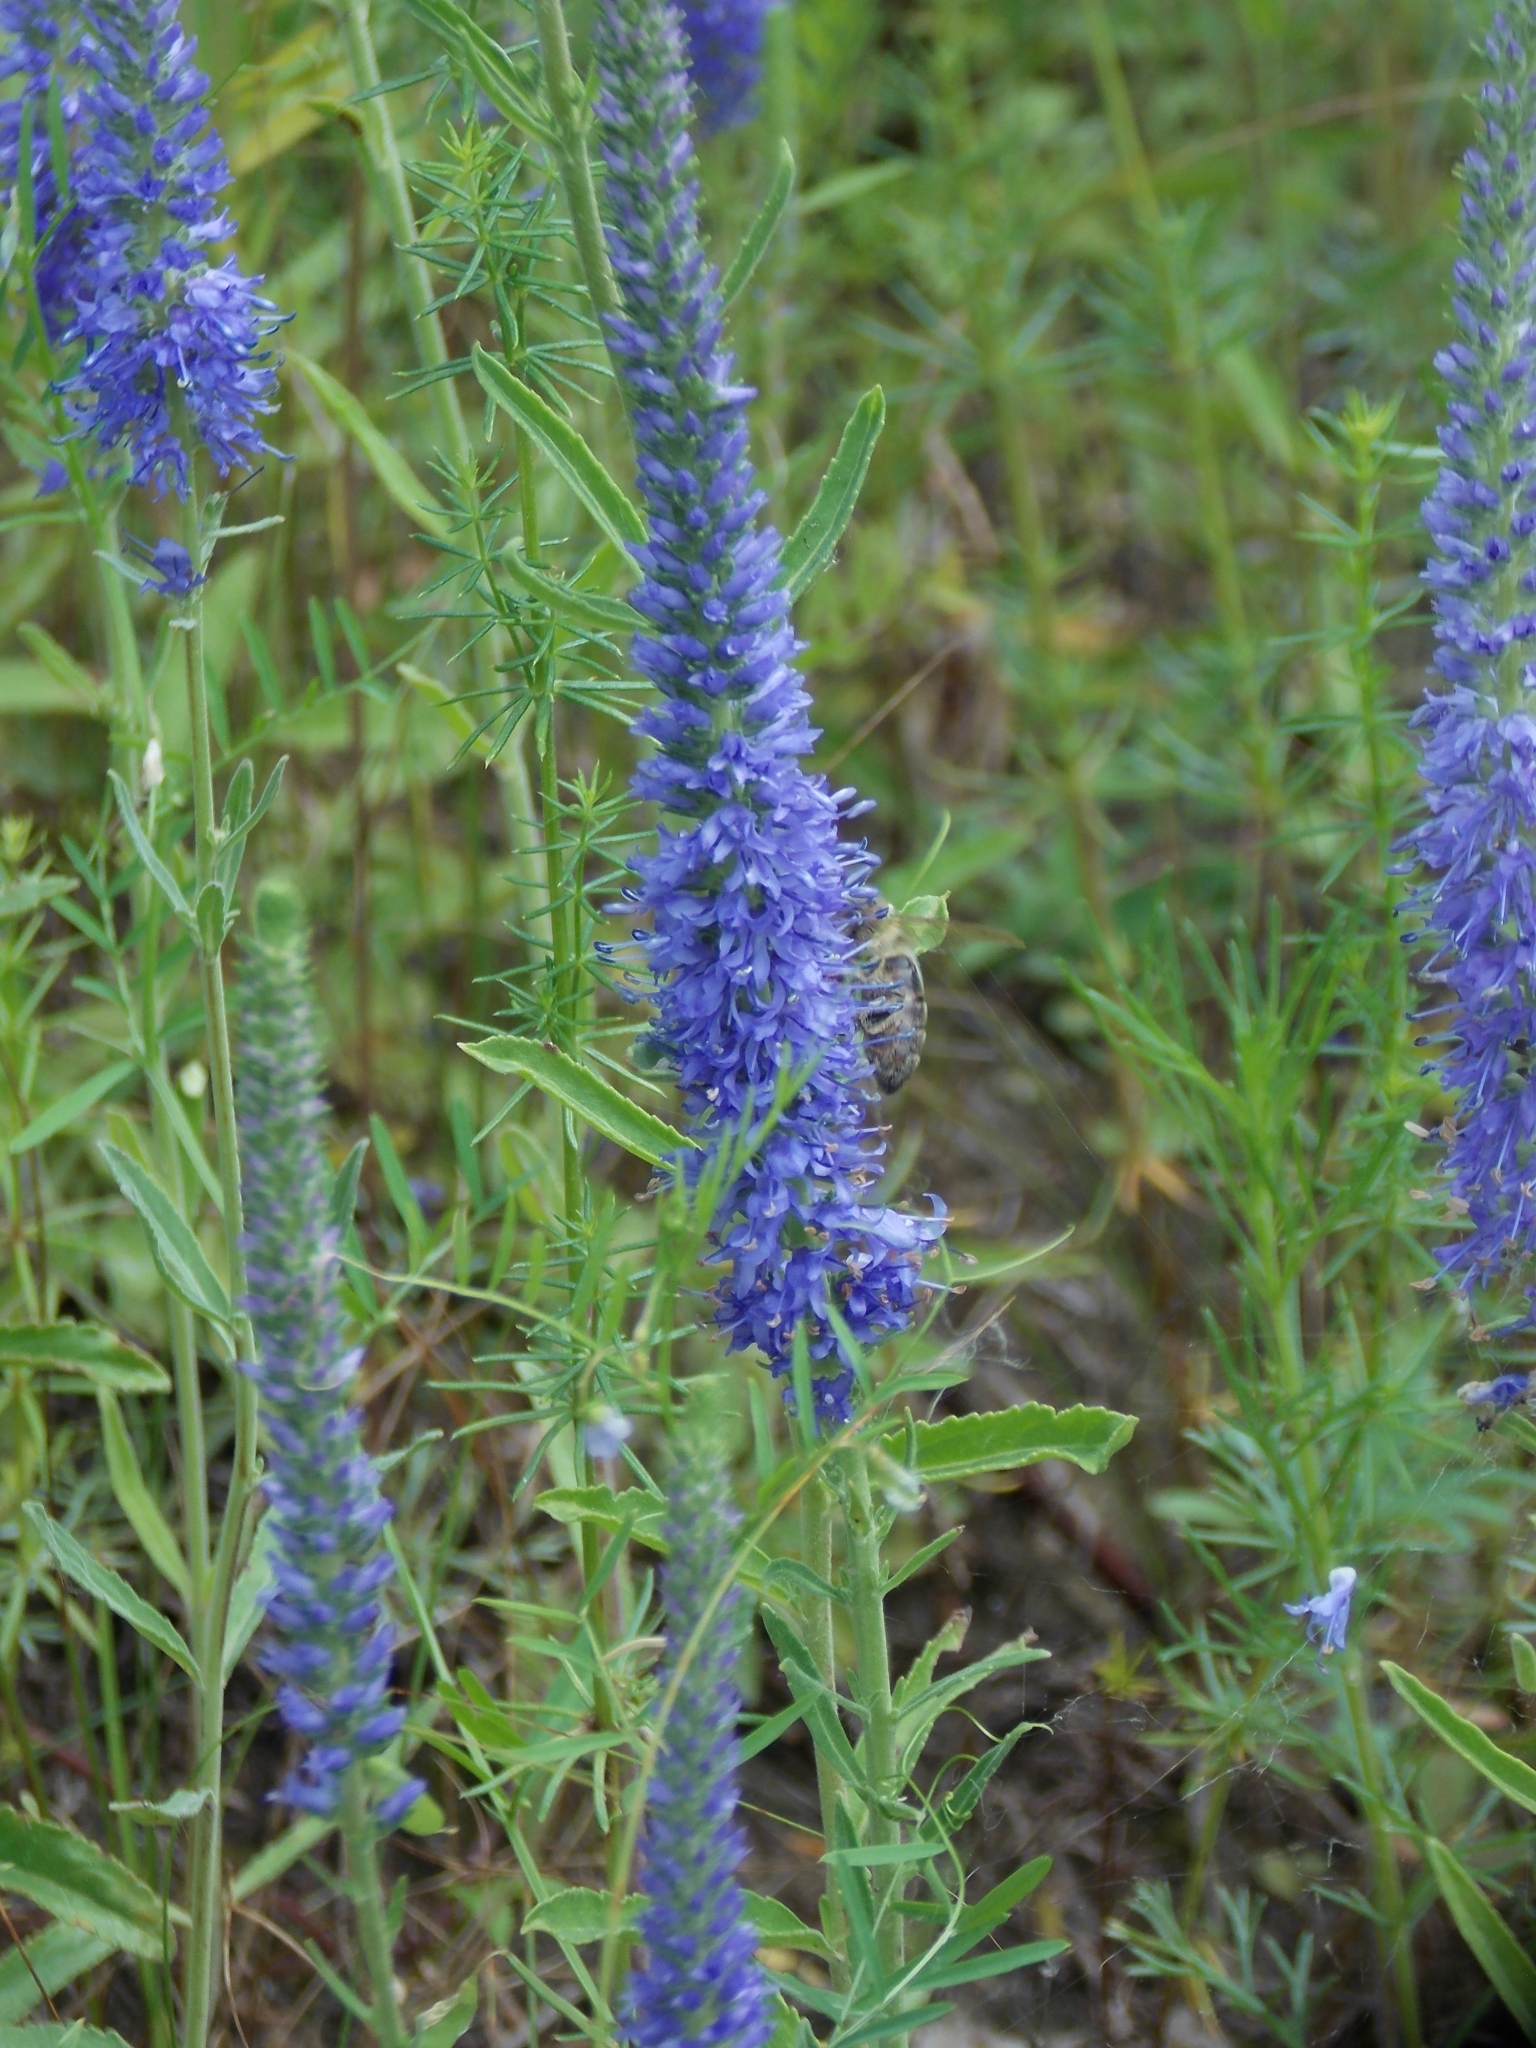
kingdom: Plantae
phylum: Tracheophyta
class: Magnoliopsida
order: Lamiales
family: Plantaginaceae
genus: Veronica
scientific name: Veronica spicata
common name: Spiked speedwell
